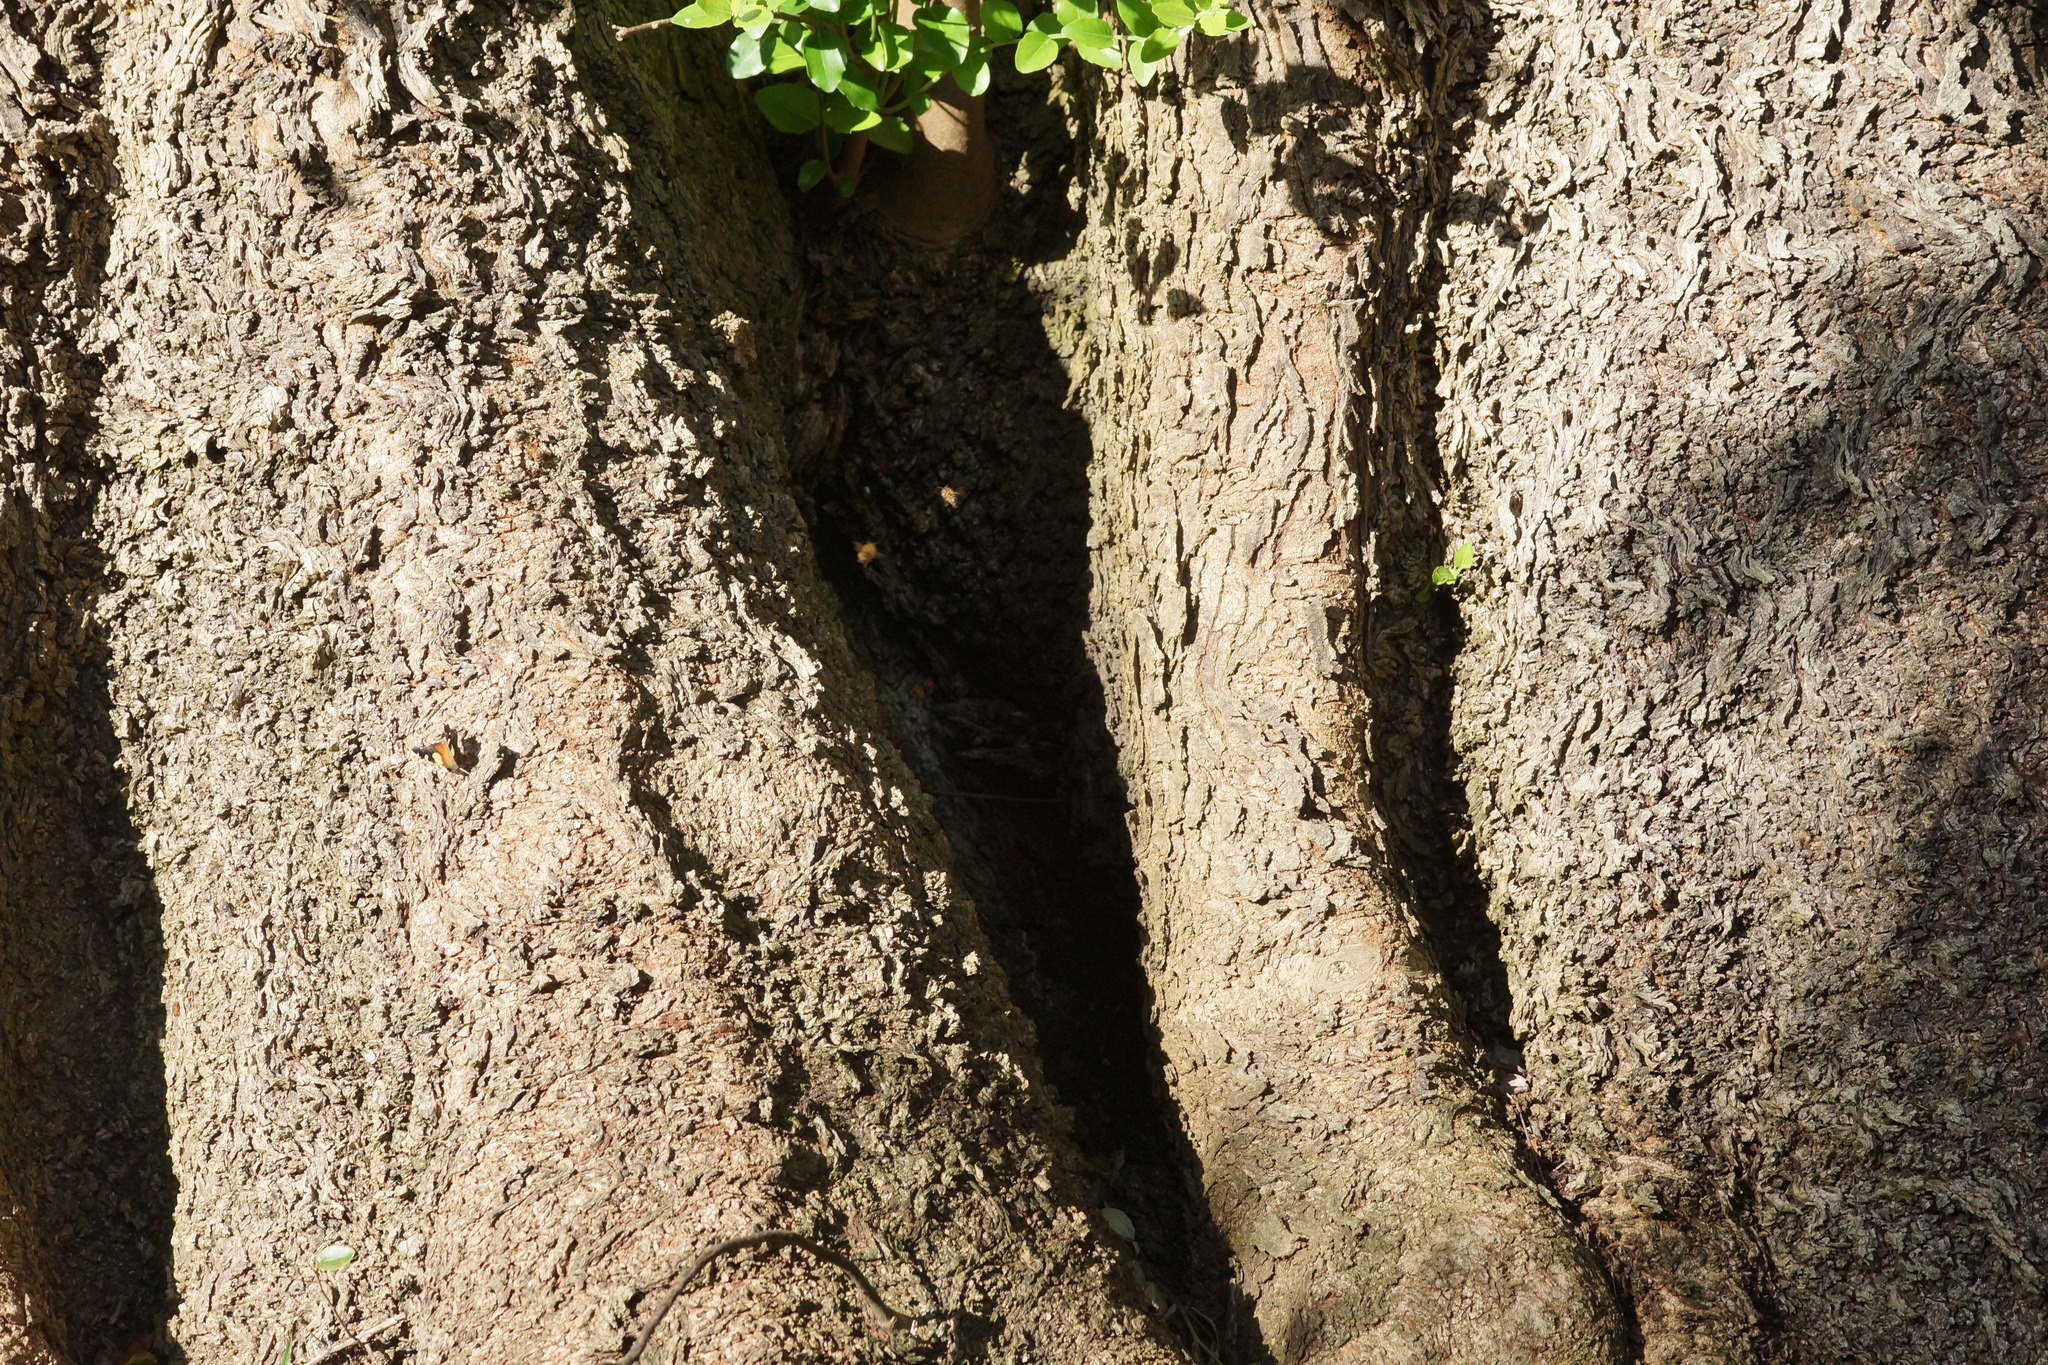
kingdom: Animalia
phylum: Arthropoda
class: Insecta
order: Hymenoptera
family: Apidae
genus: Apis
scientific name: Apis mellifera
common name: Honey bee
